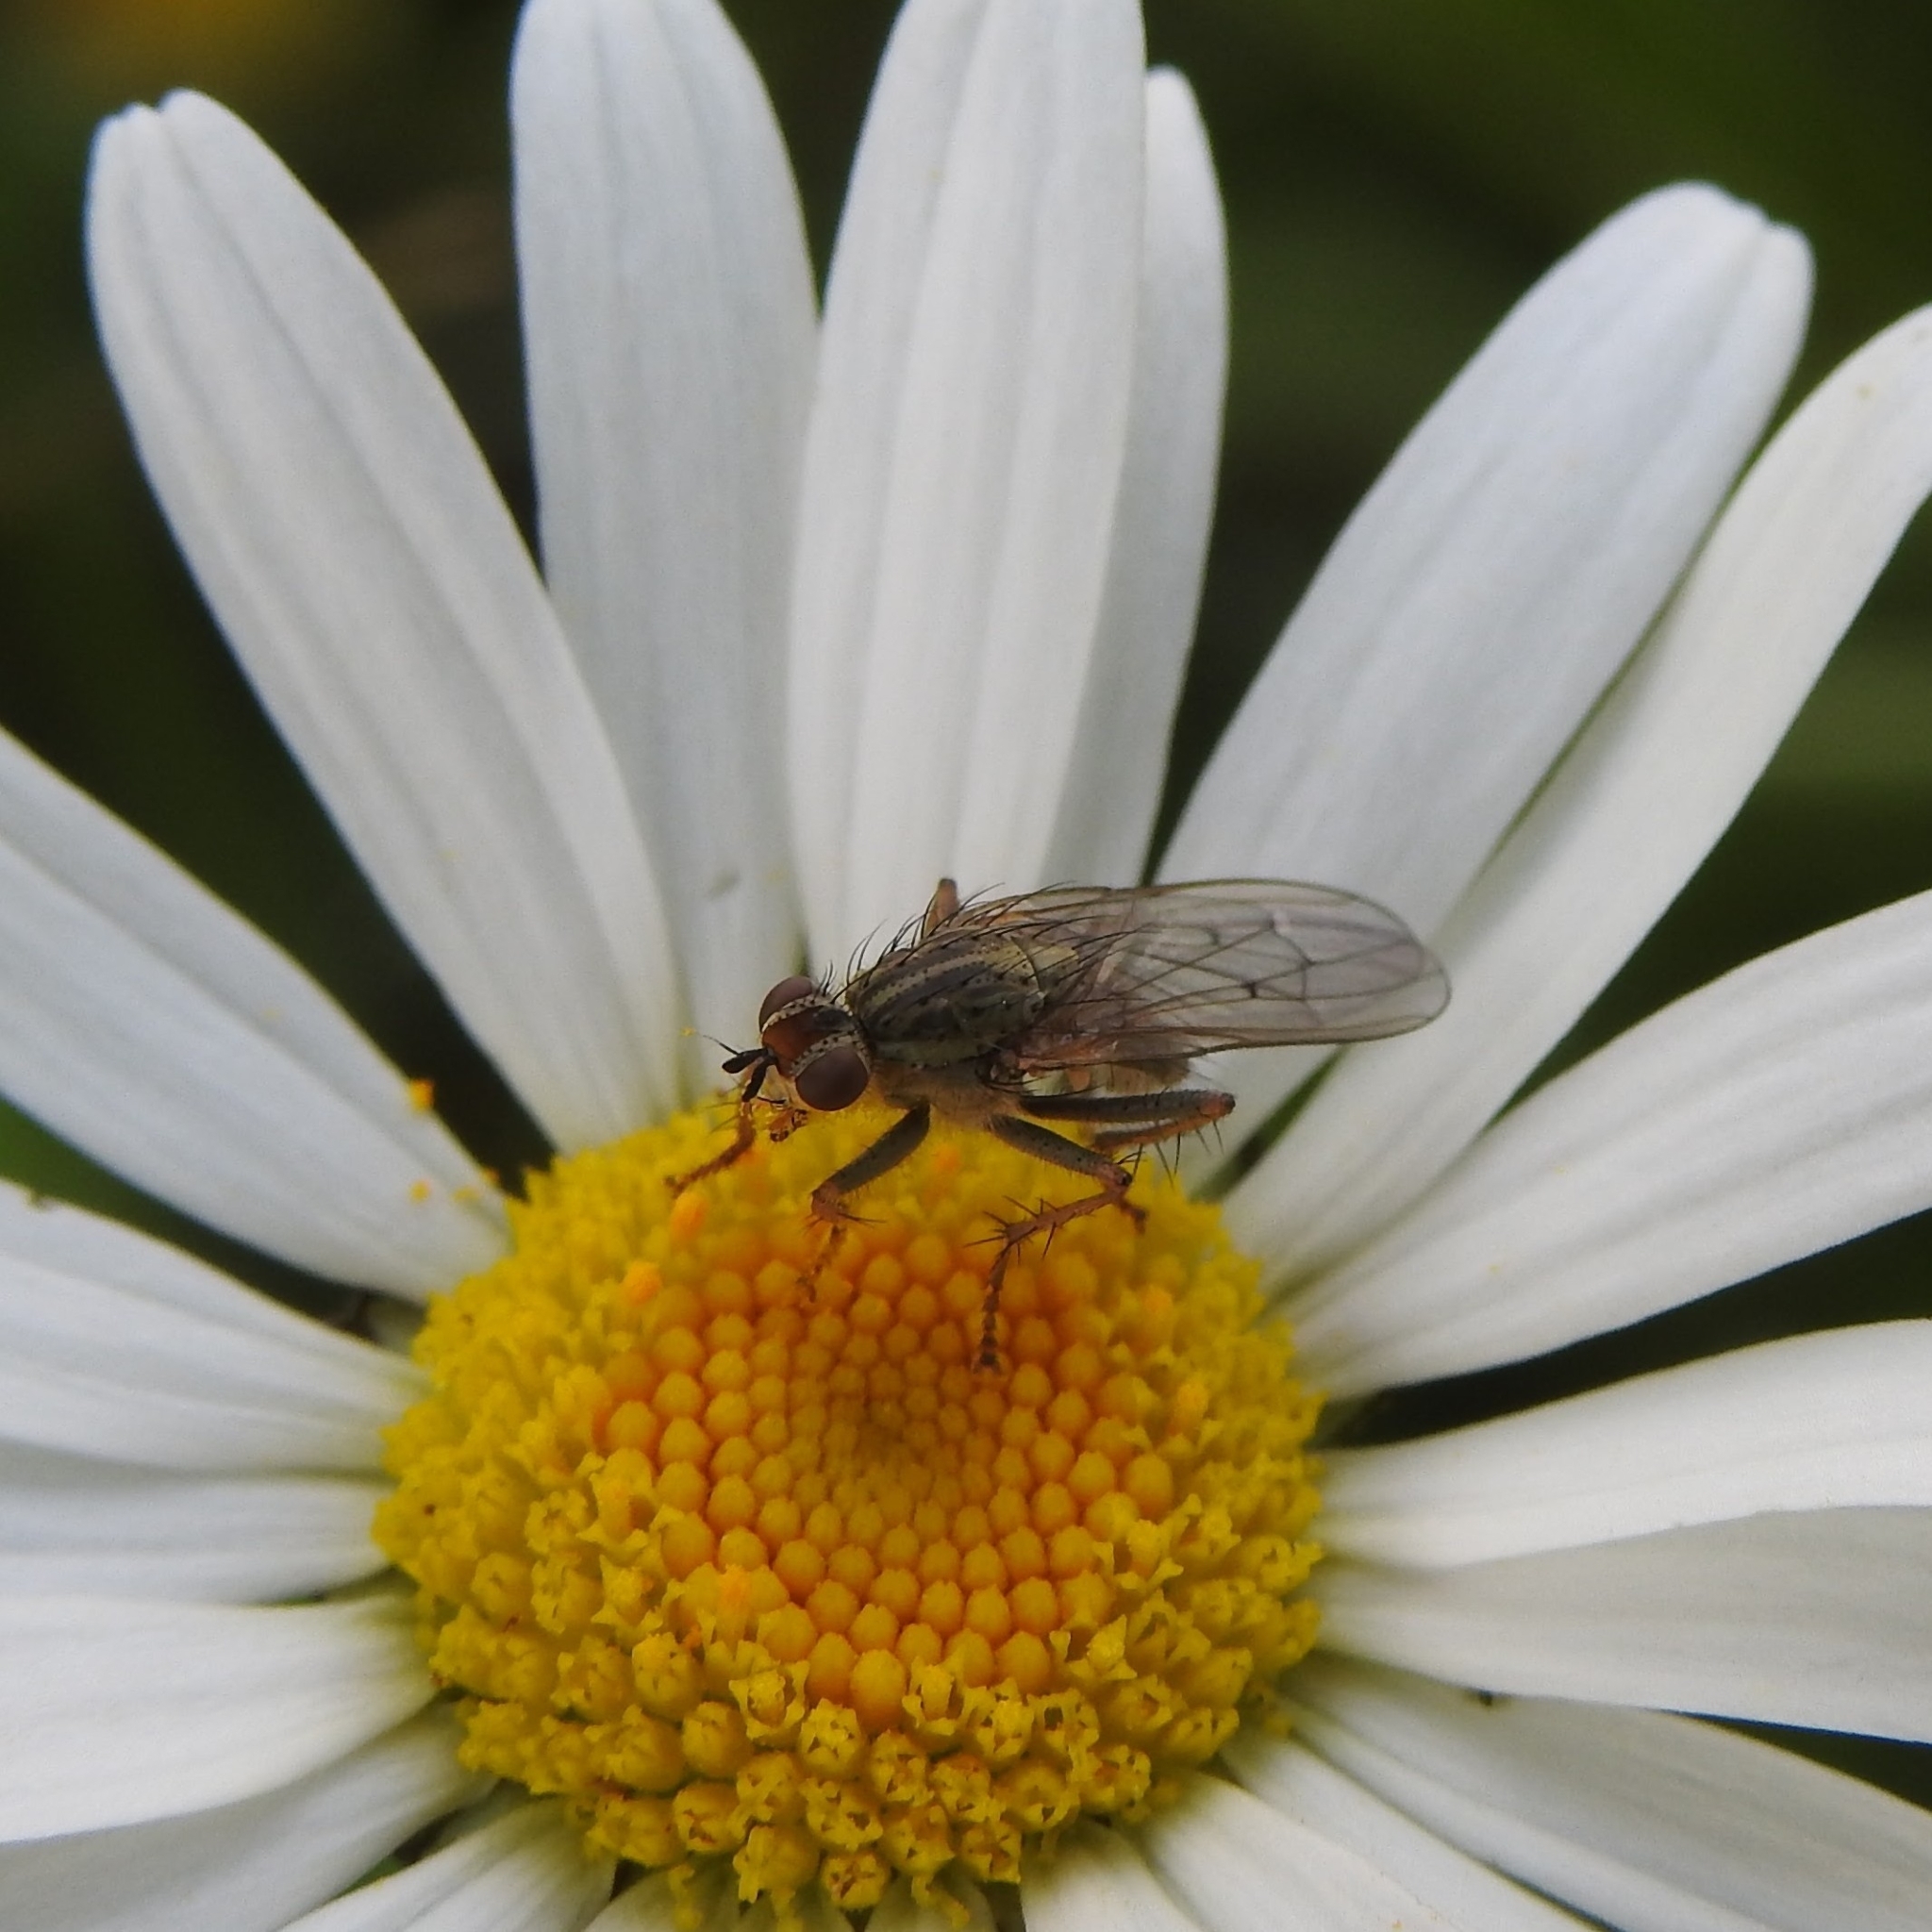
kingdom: Animalia
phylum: Arthropoda
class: Insecta
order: Diptera
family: Scathophagidae
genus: Scathophaga
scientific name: Scathophaga stercoraria
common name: Yellow dung fly
